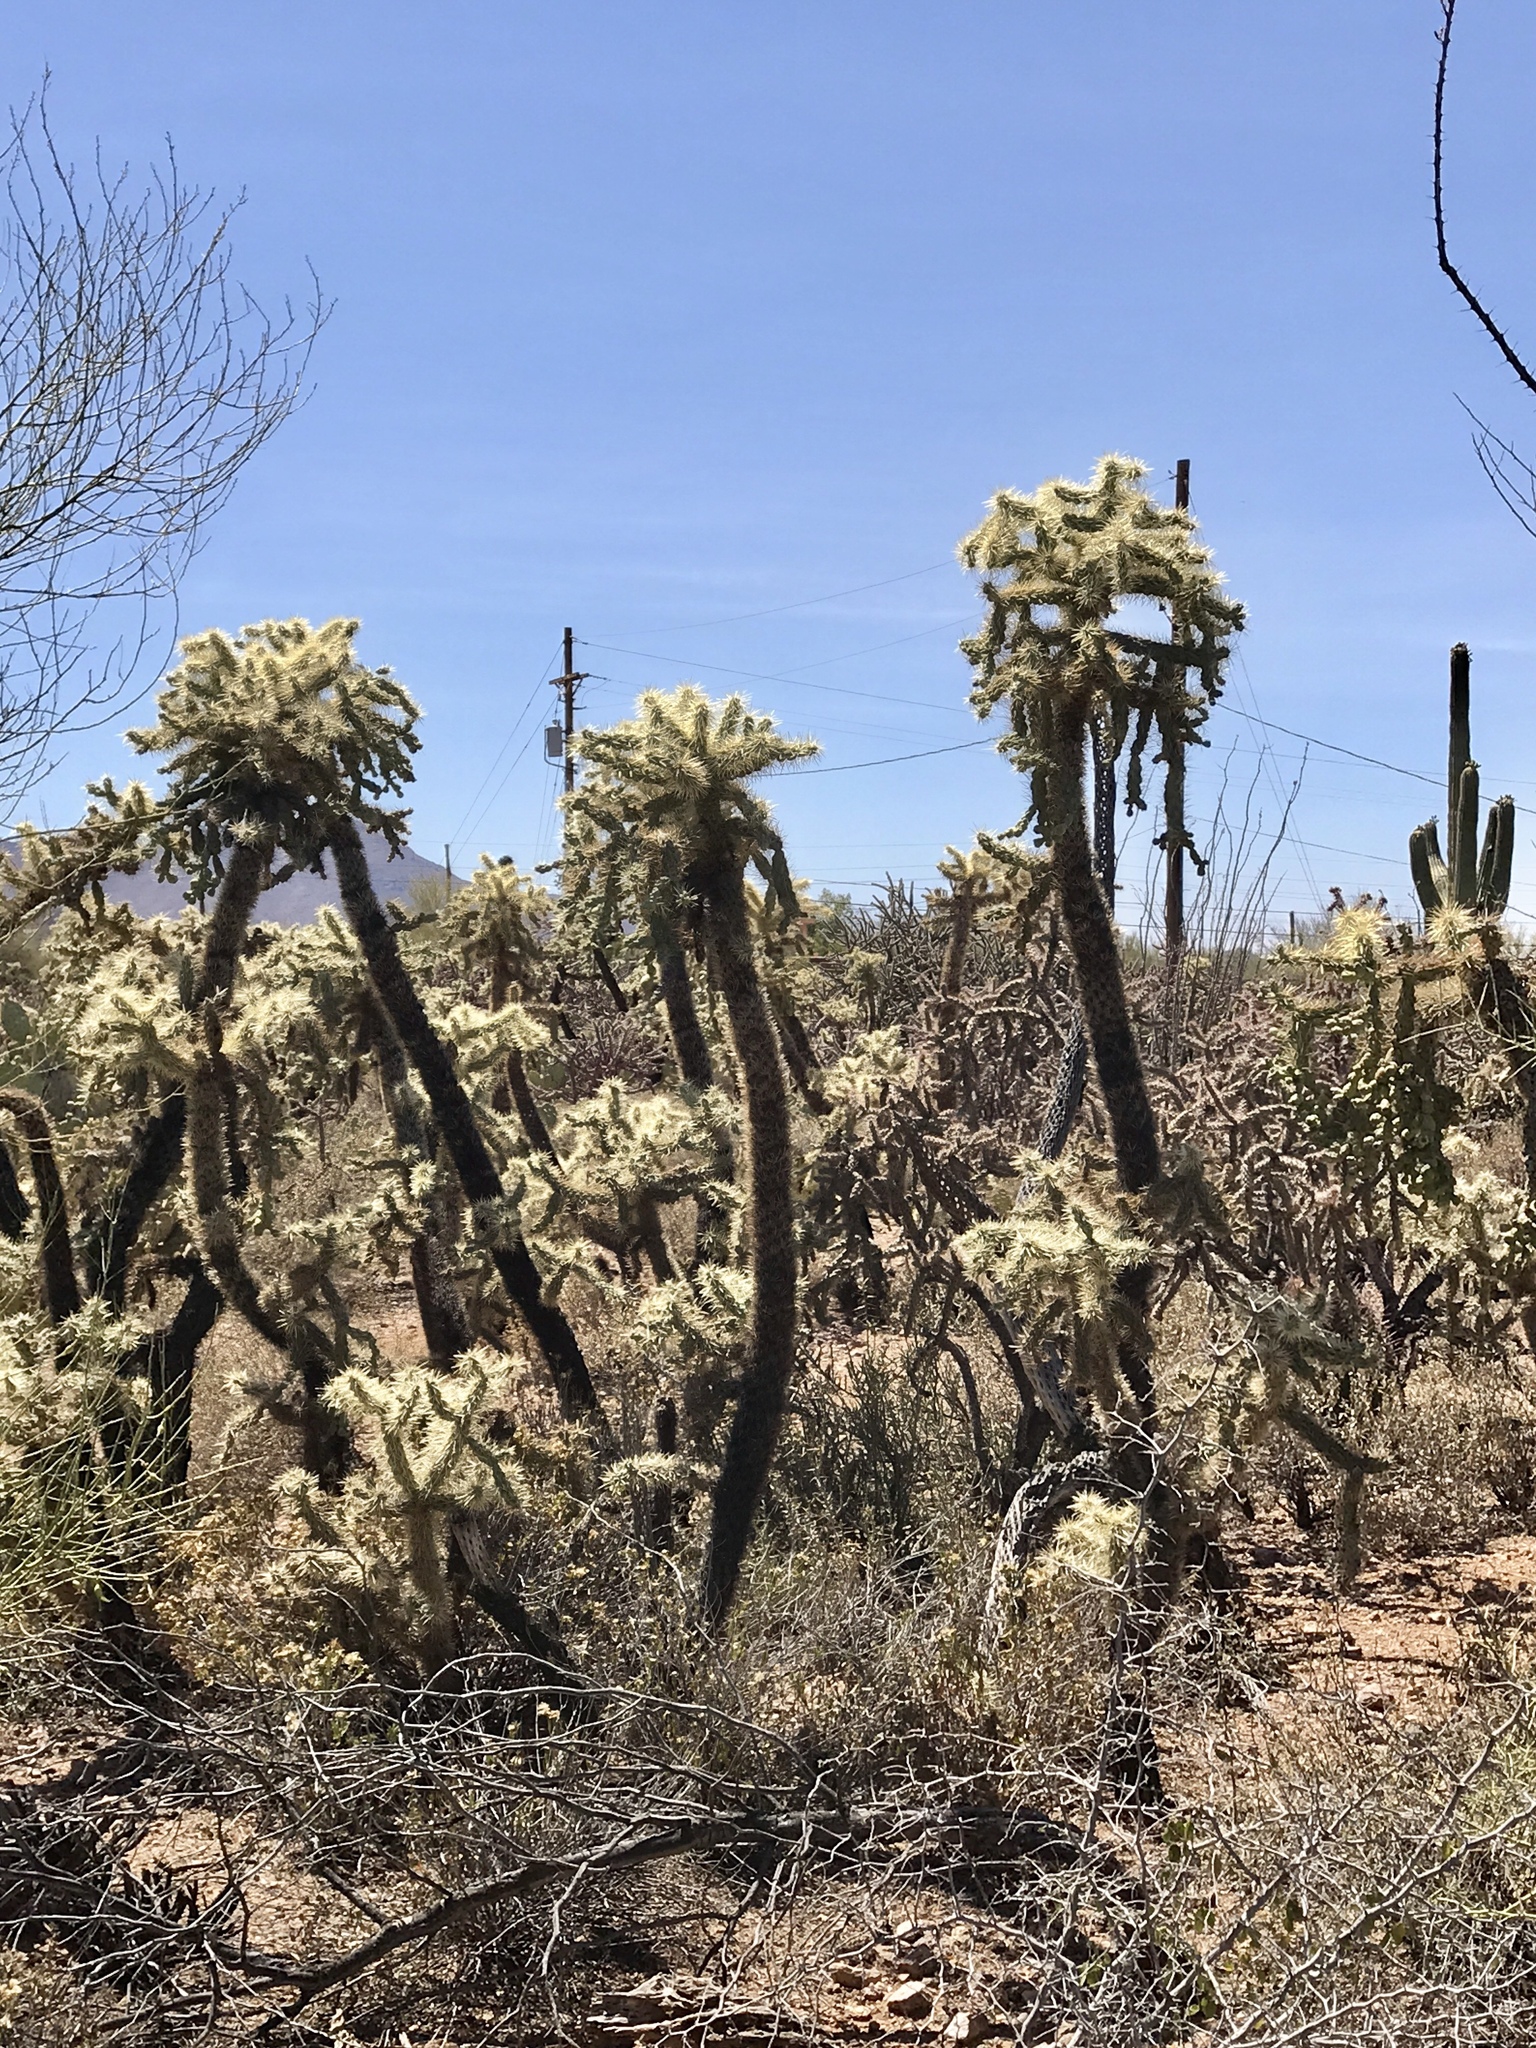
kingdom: Plantae
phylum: Tracheophyta
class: Magnoliopsida
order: Caryophyllales
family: Cactaceae
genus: Cylindropuntia
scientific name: Cylindropuntia fulgida
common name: Jumping cholla
